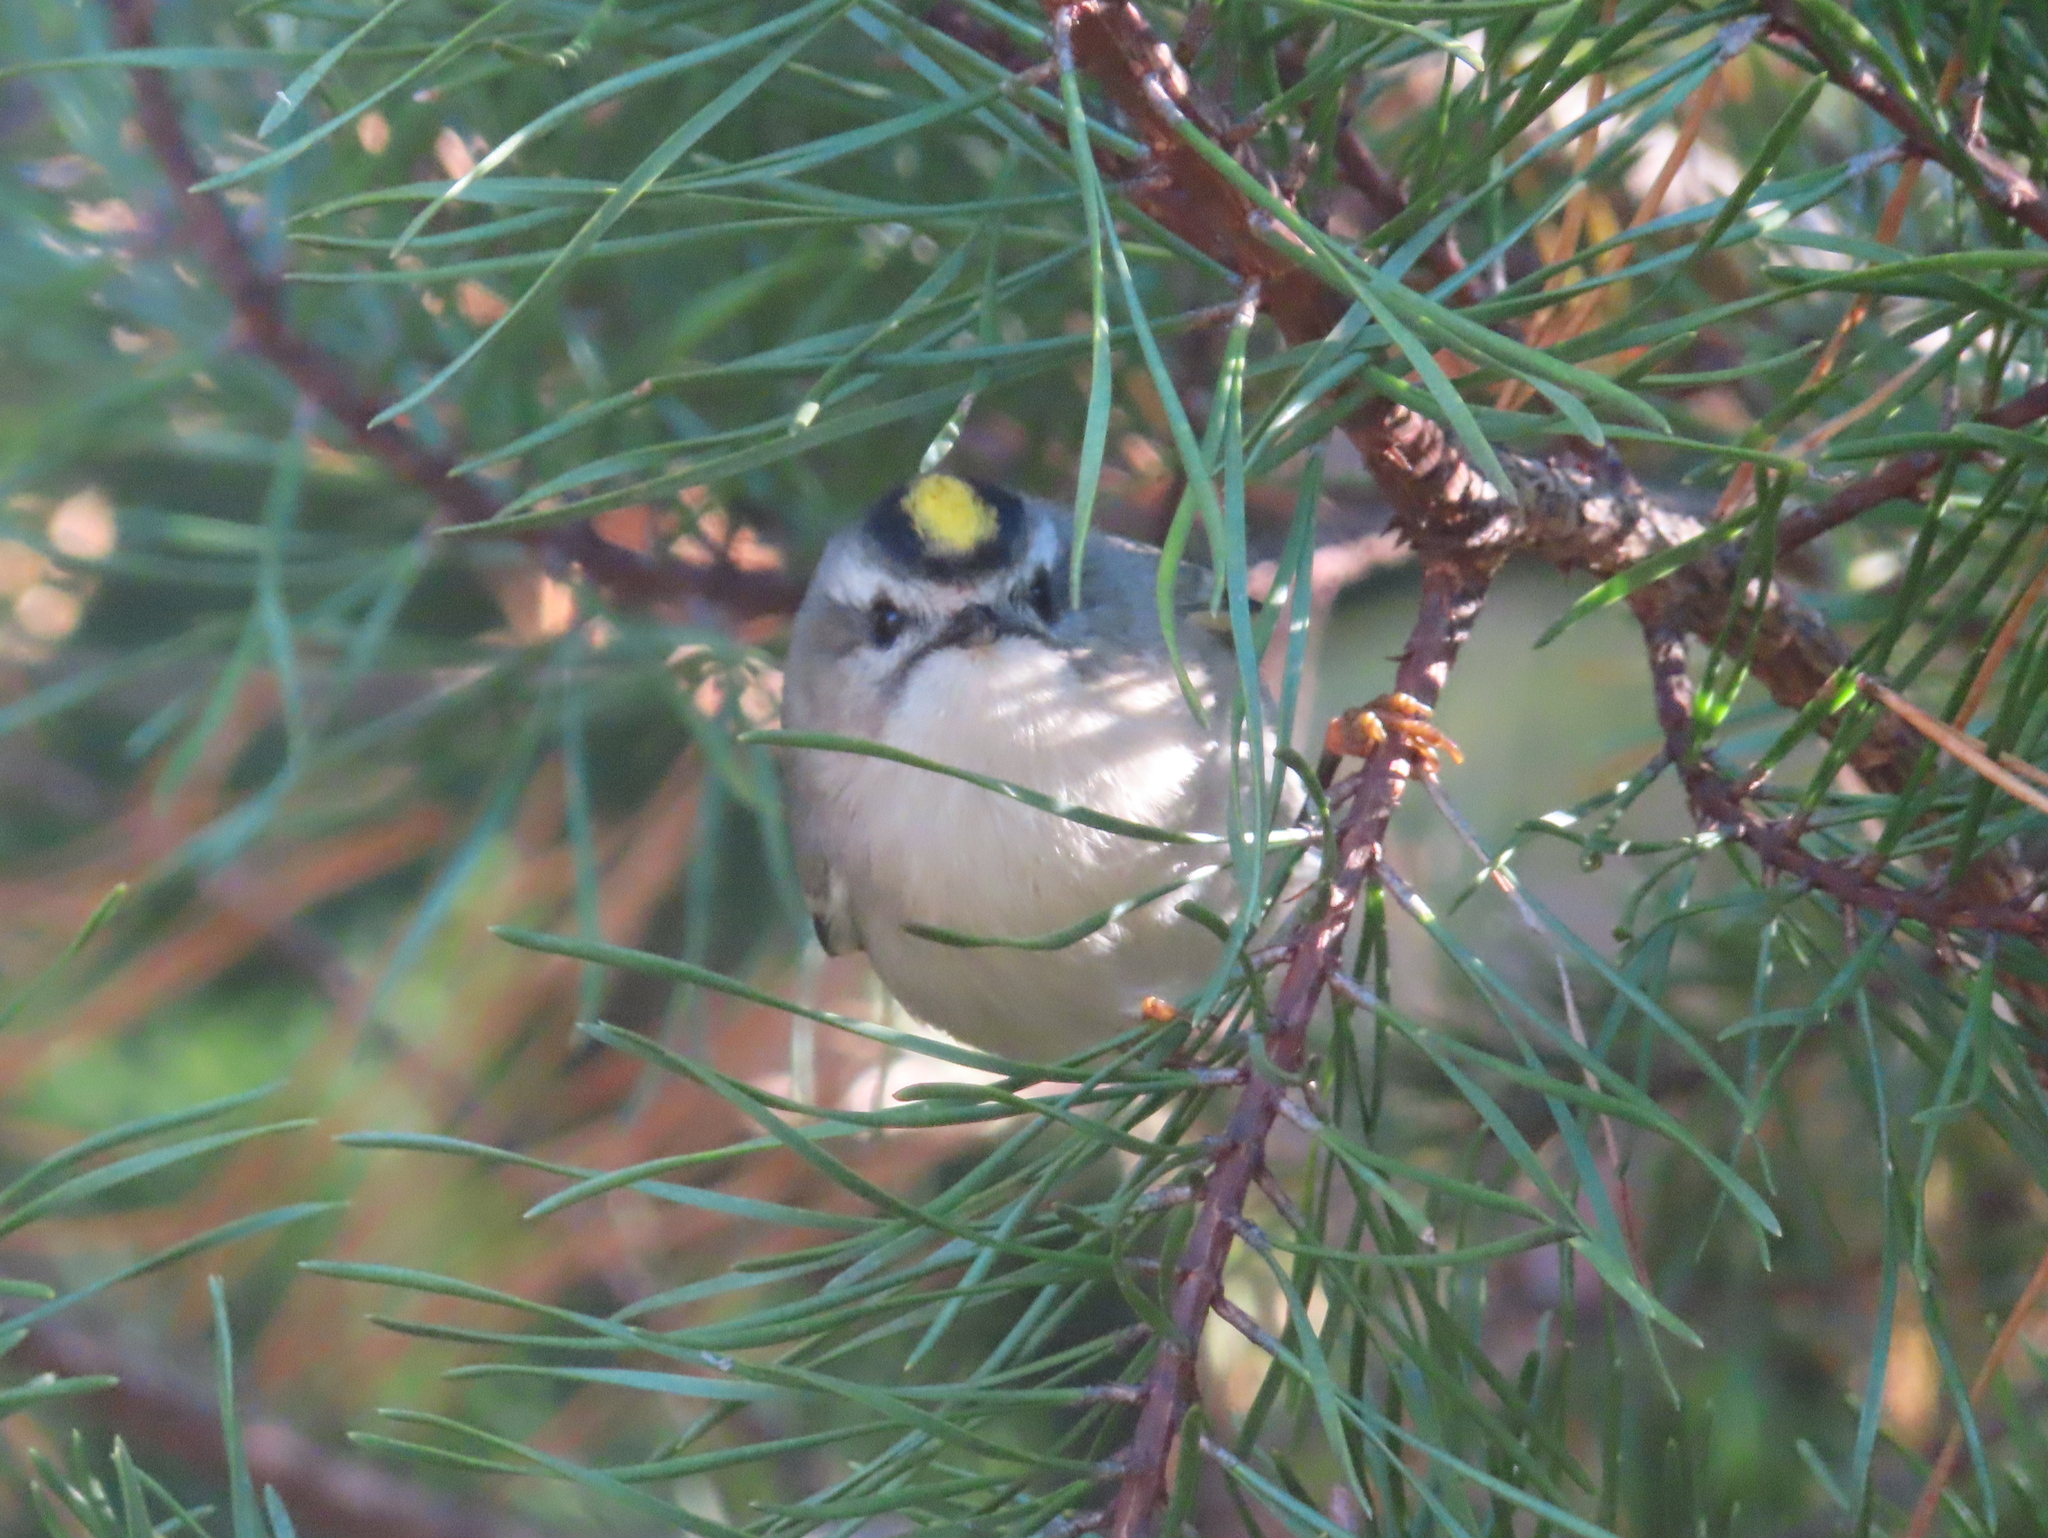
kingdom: Animalia
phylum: Chordata
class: Aves
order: Passeriformes
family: Regulidae
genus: Regulus
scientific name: Regulus satrapa
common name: Golden-crowned kinglet
